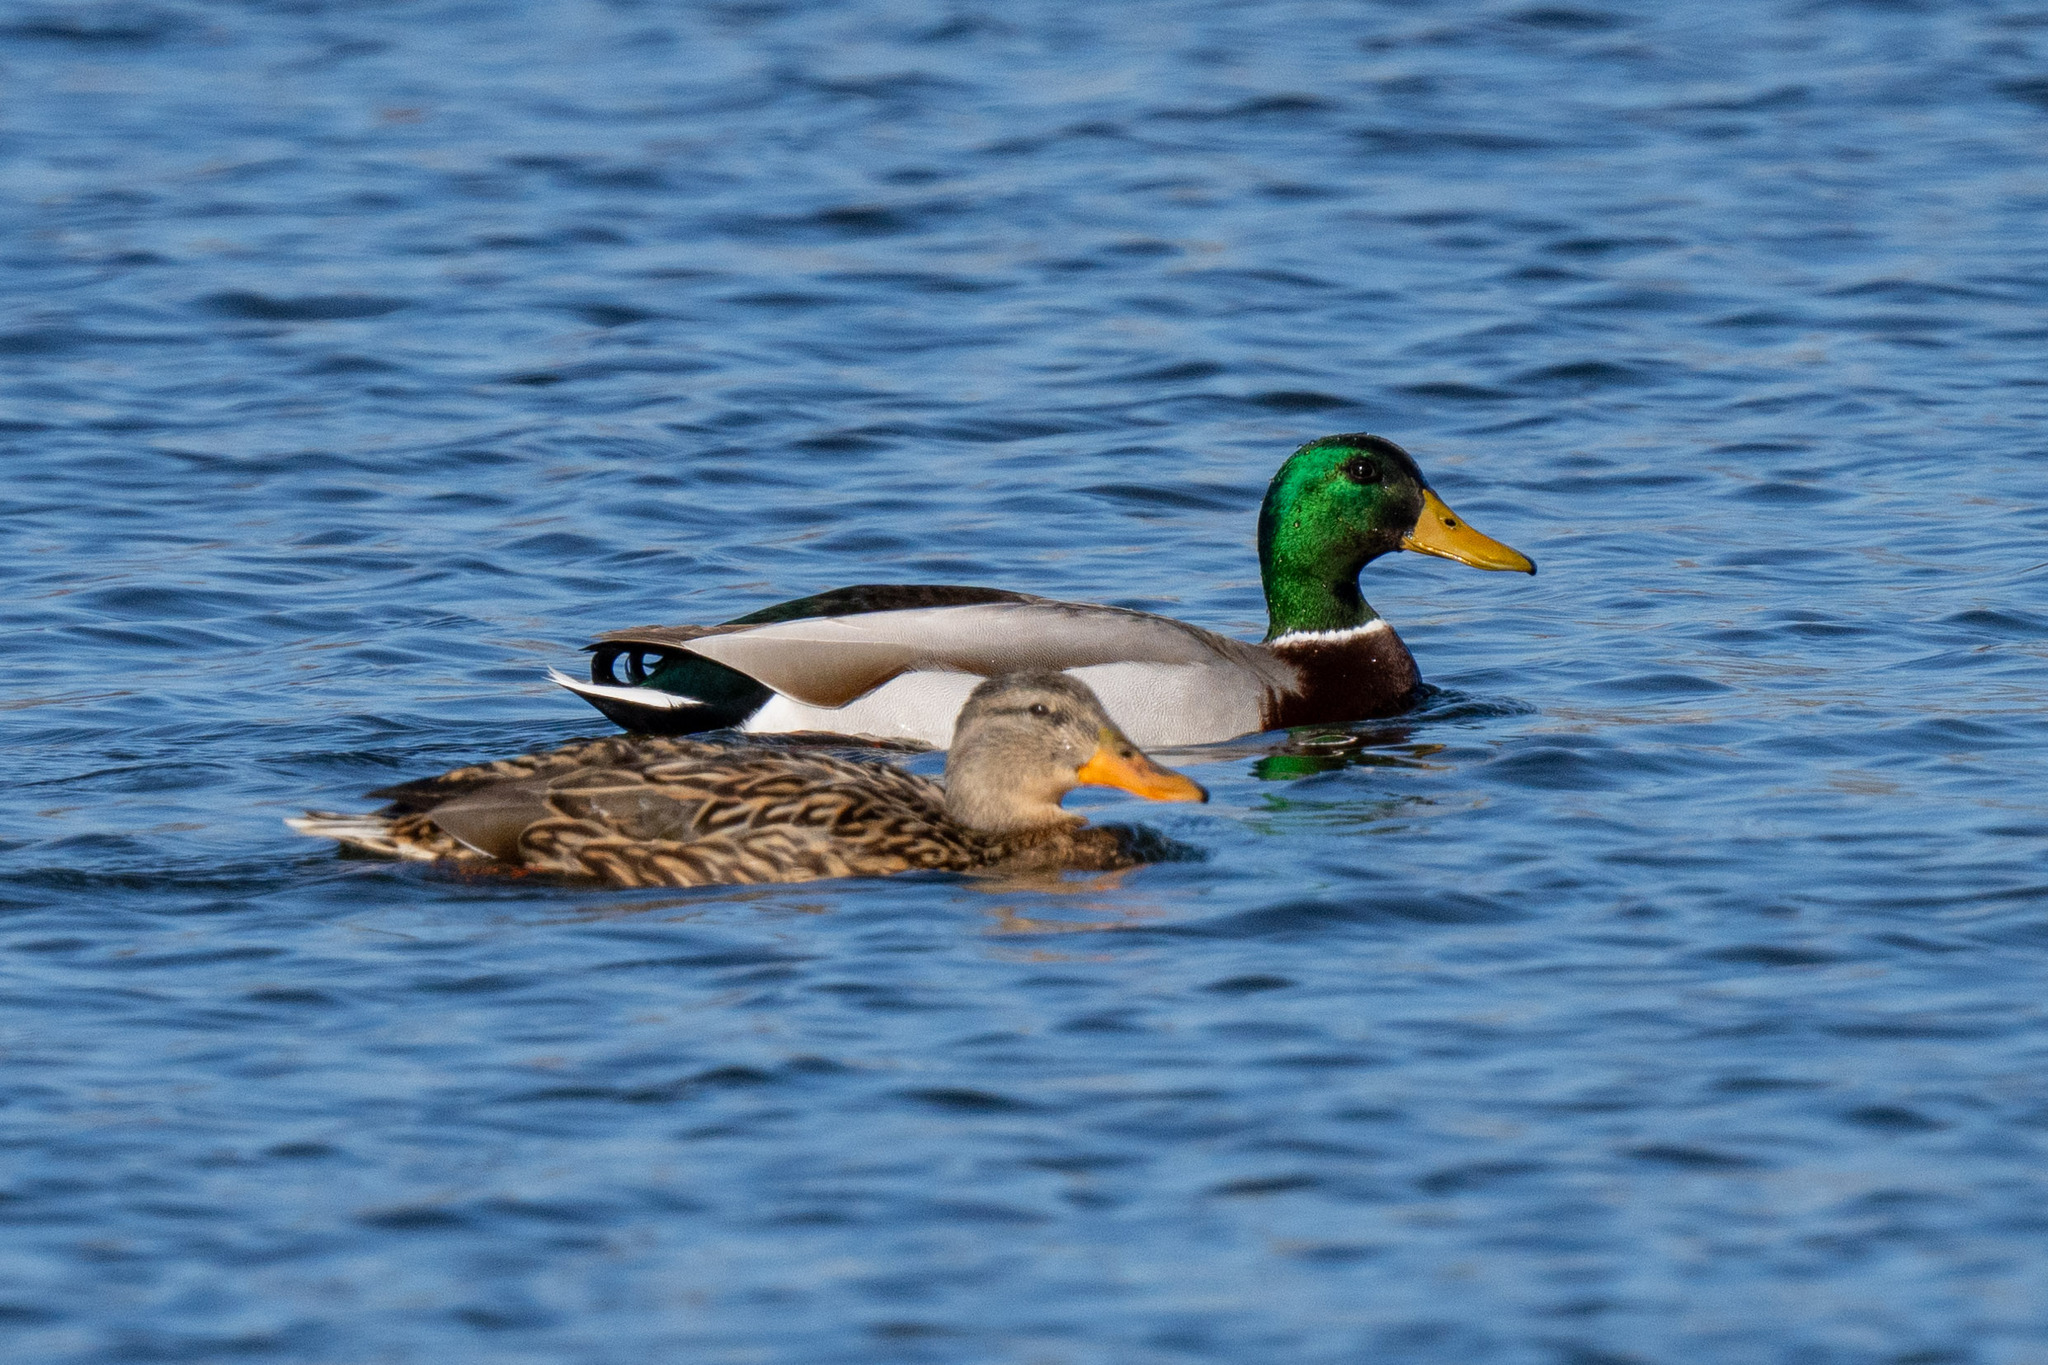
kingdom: Animalia
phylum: Chordata
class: Aves
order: Anseriformes
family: Anatidae
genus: Anas
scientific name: Anas platyrhynchos
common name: Mallard
